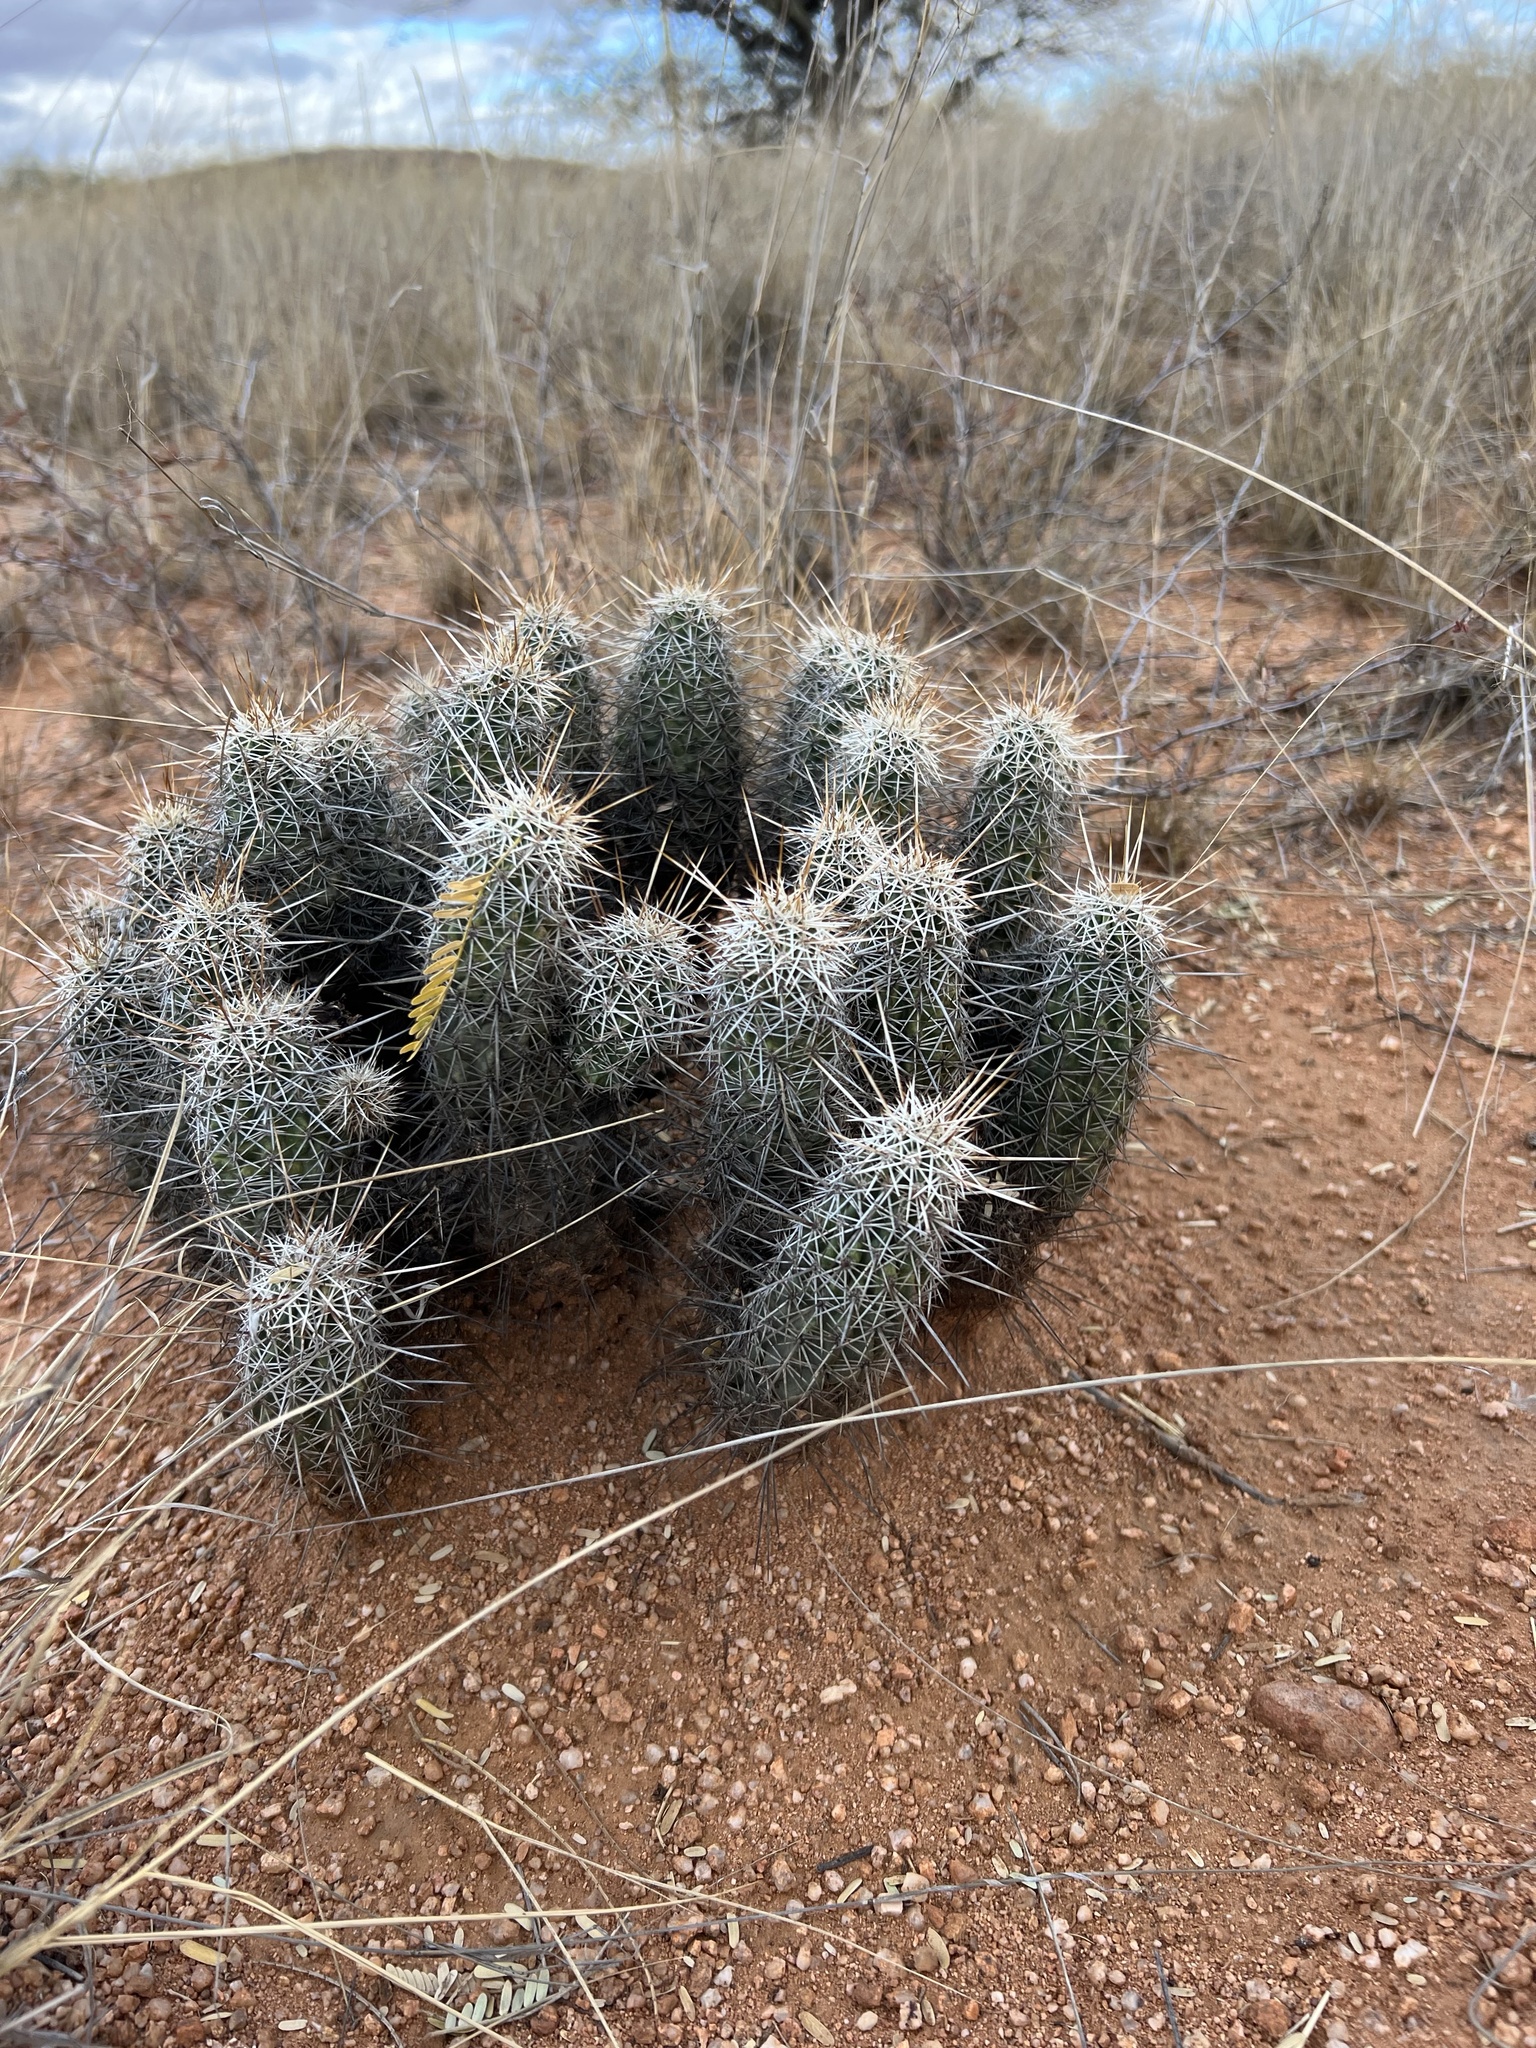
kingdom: Plantae
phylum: Tracheophyta
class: Magnoliopsida
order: Caryophyllales
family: Cactaceae
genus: Echinocereus
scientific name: Echinocereus fasciculatus
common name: Bundle hedgehog
